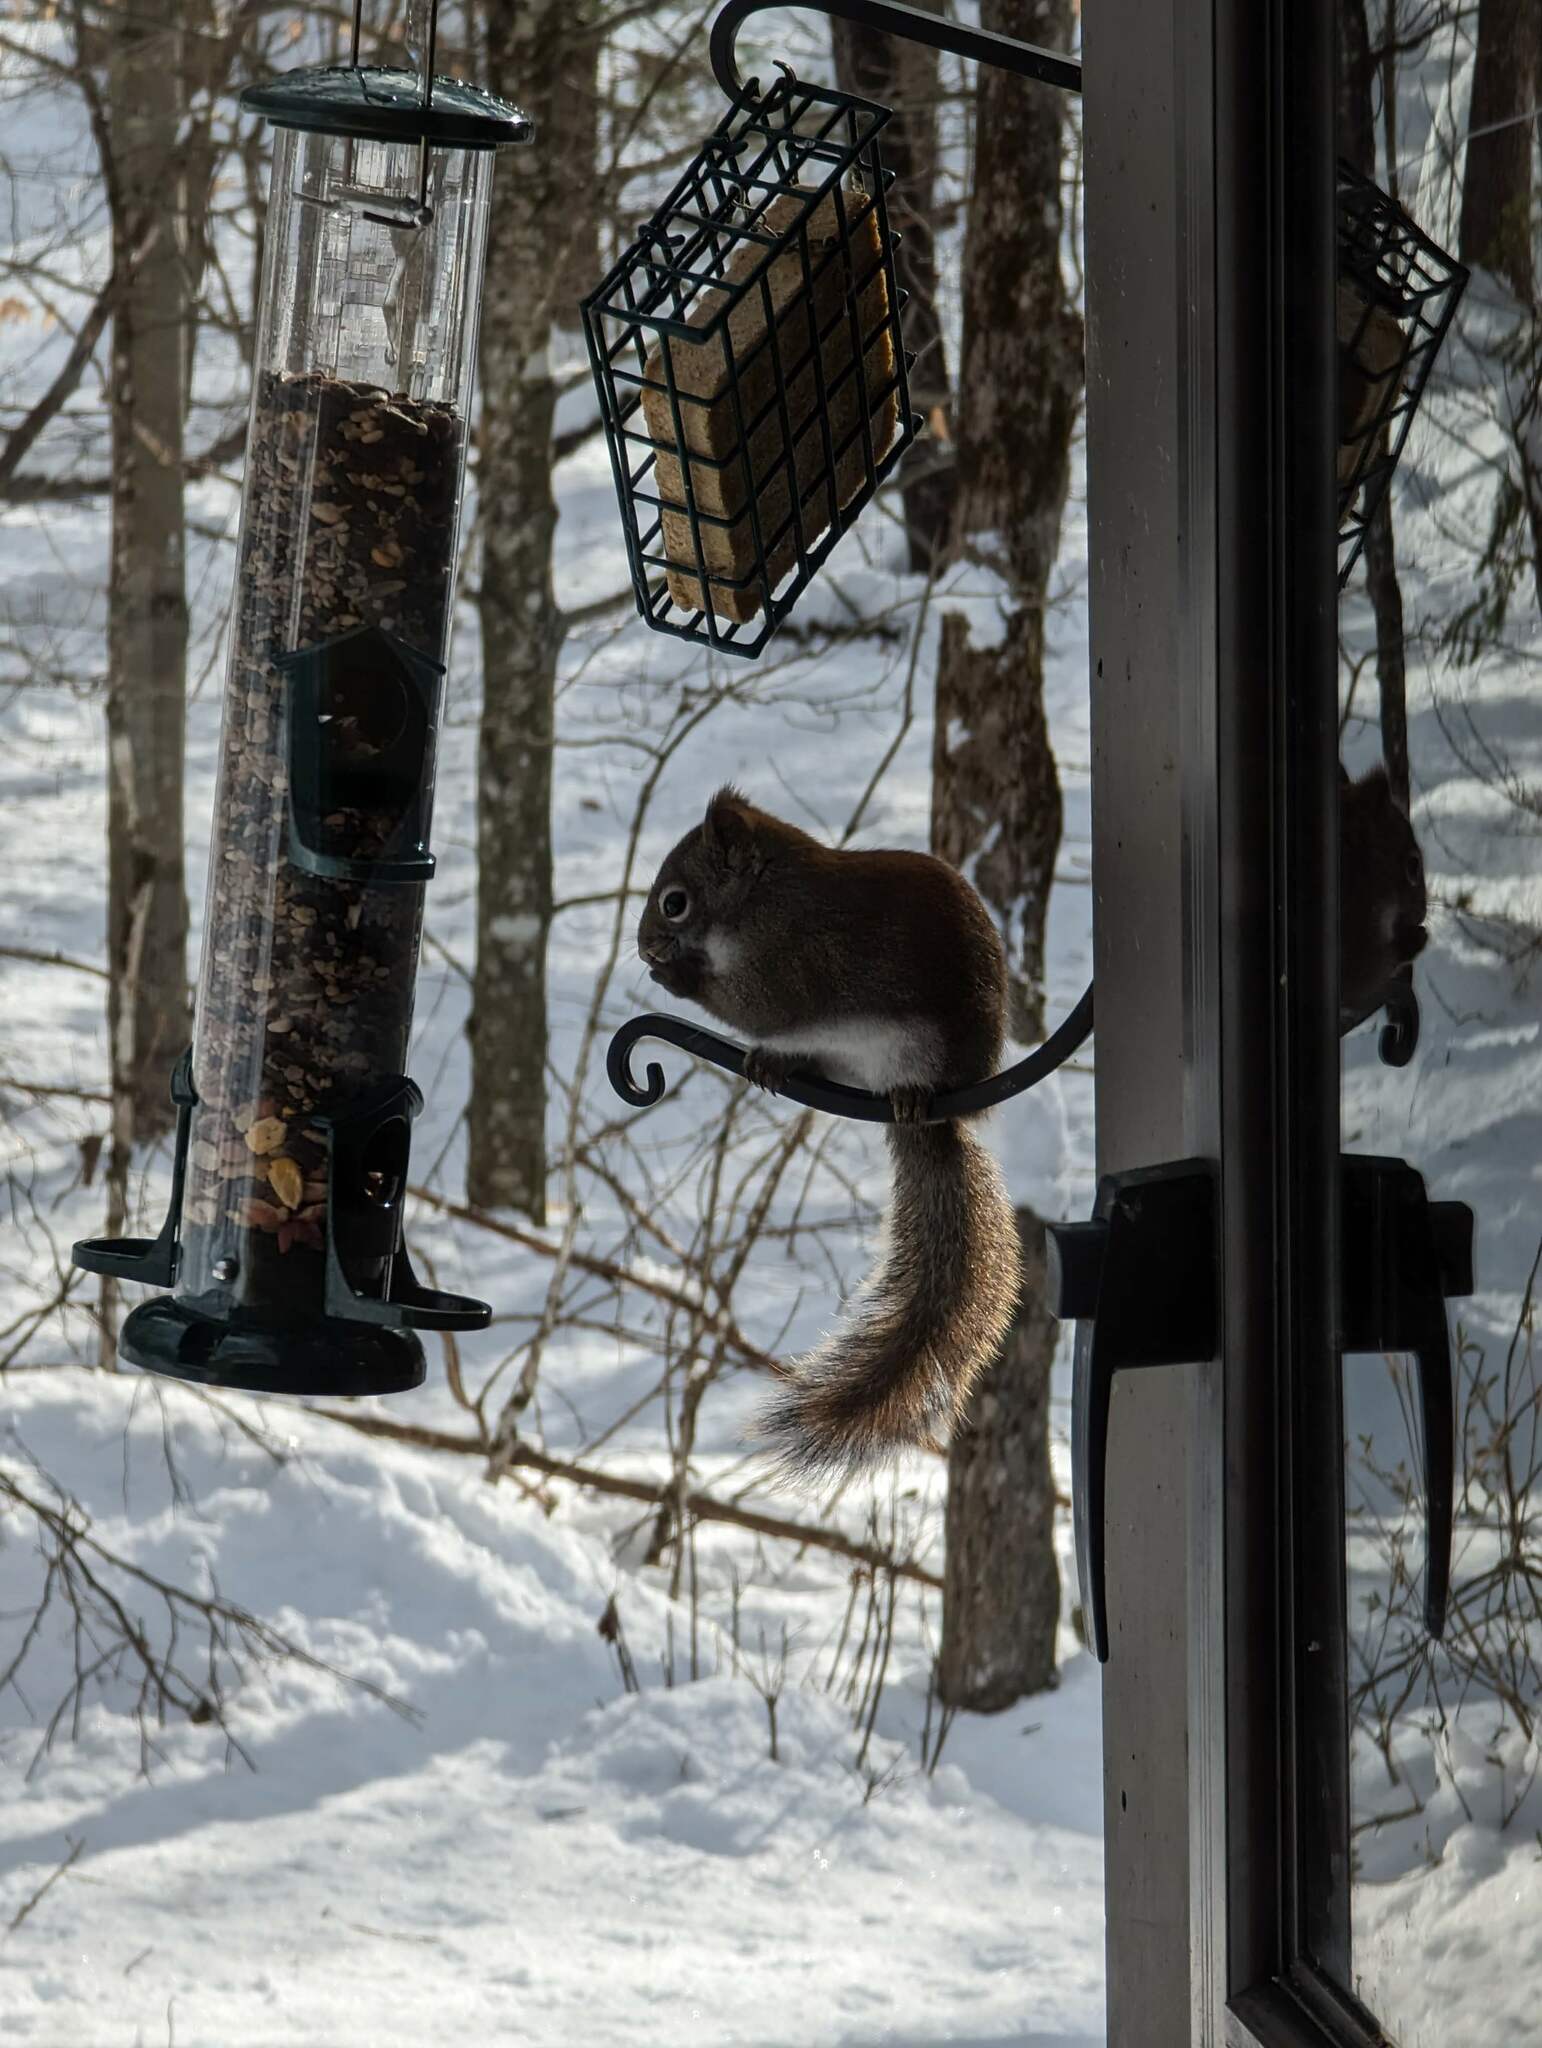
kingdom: Animalia
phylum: Chordata
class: Mammalia
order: Rodentia
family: Sciuridae
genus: Tamiasciurus
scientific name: Tamiasciurus hudsonicus
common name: Red squirrel
